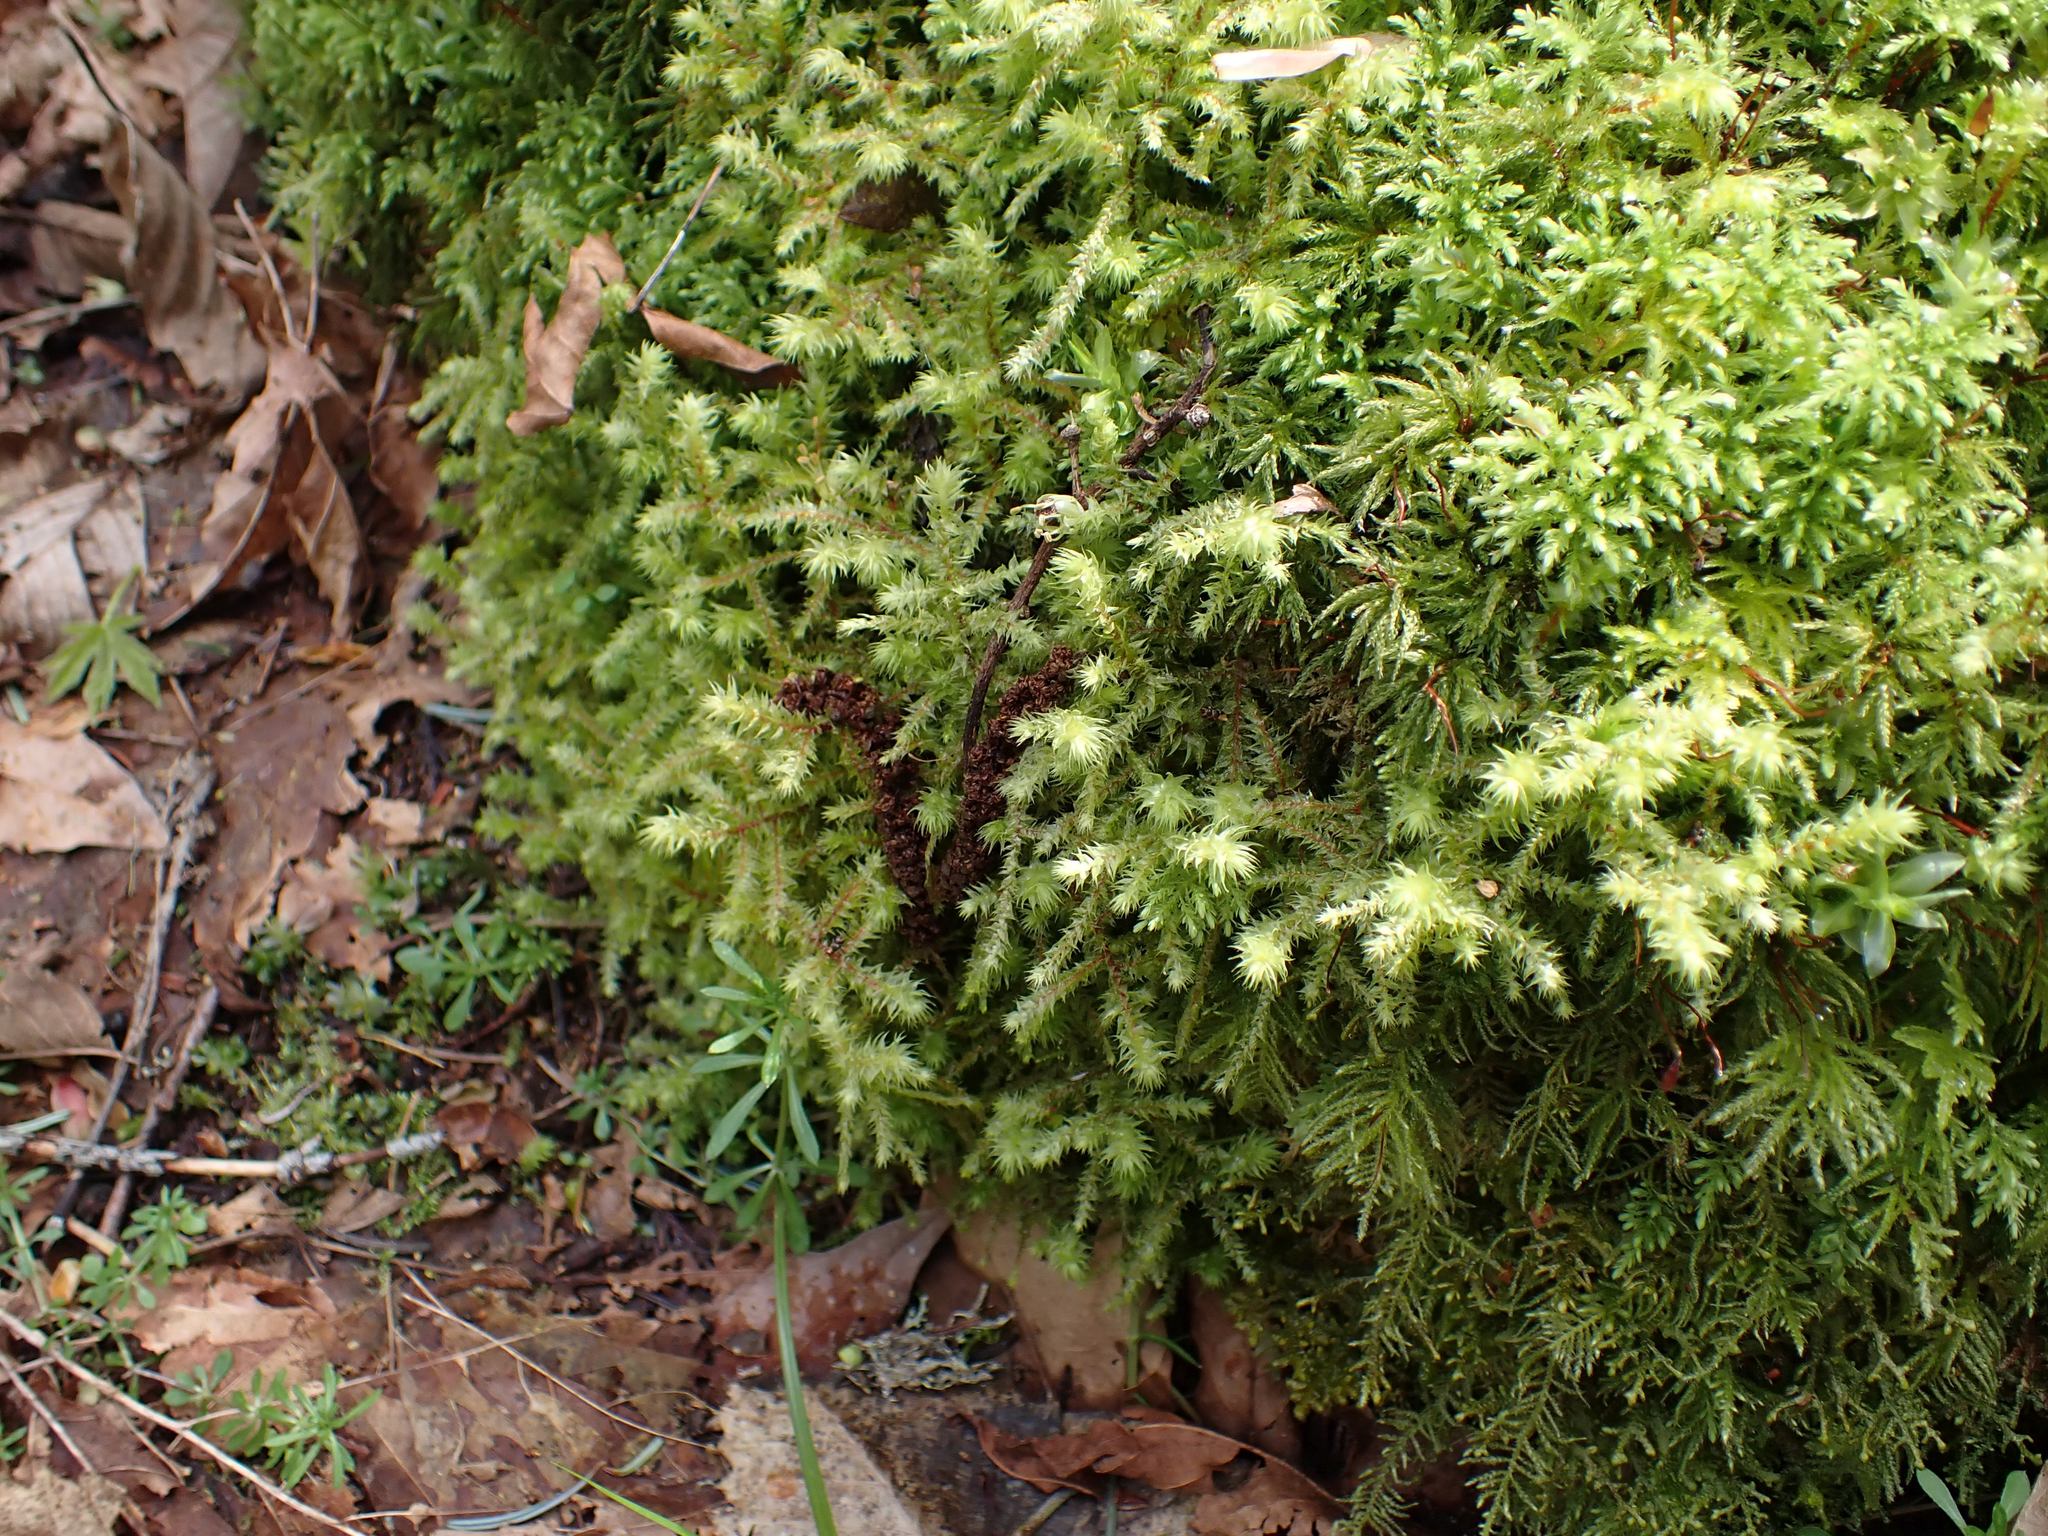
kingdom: Plantae
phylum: Bryophyta
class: Bryopsida
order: Hypnales
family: Hylocomiaceae
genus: Hylocomiadelphus
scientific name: Hylocomiadelphus triquetrus
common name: Rough goose neck moss
